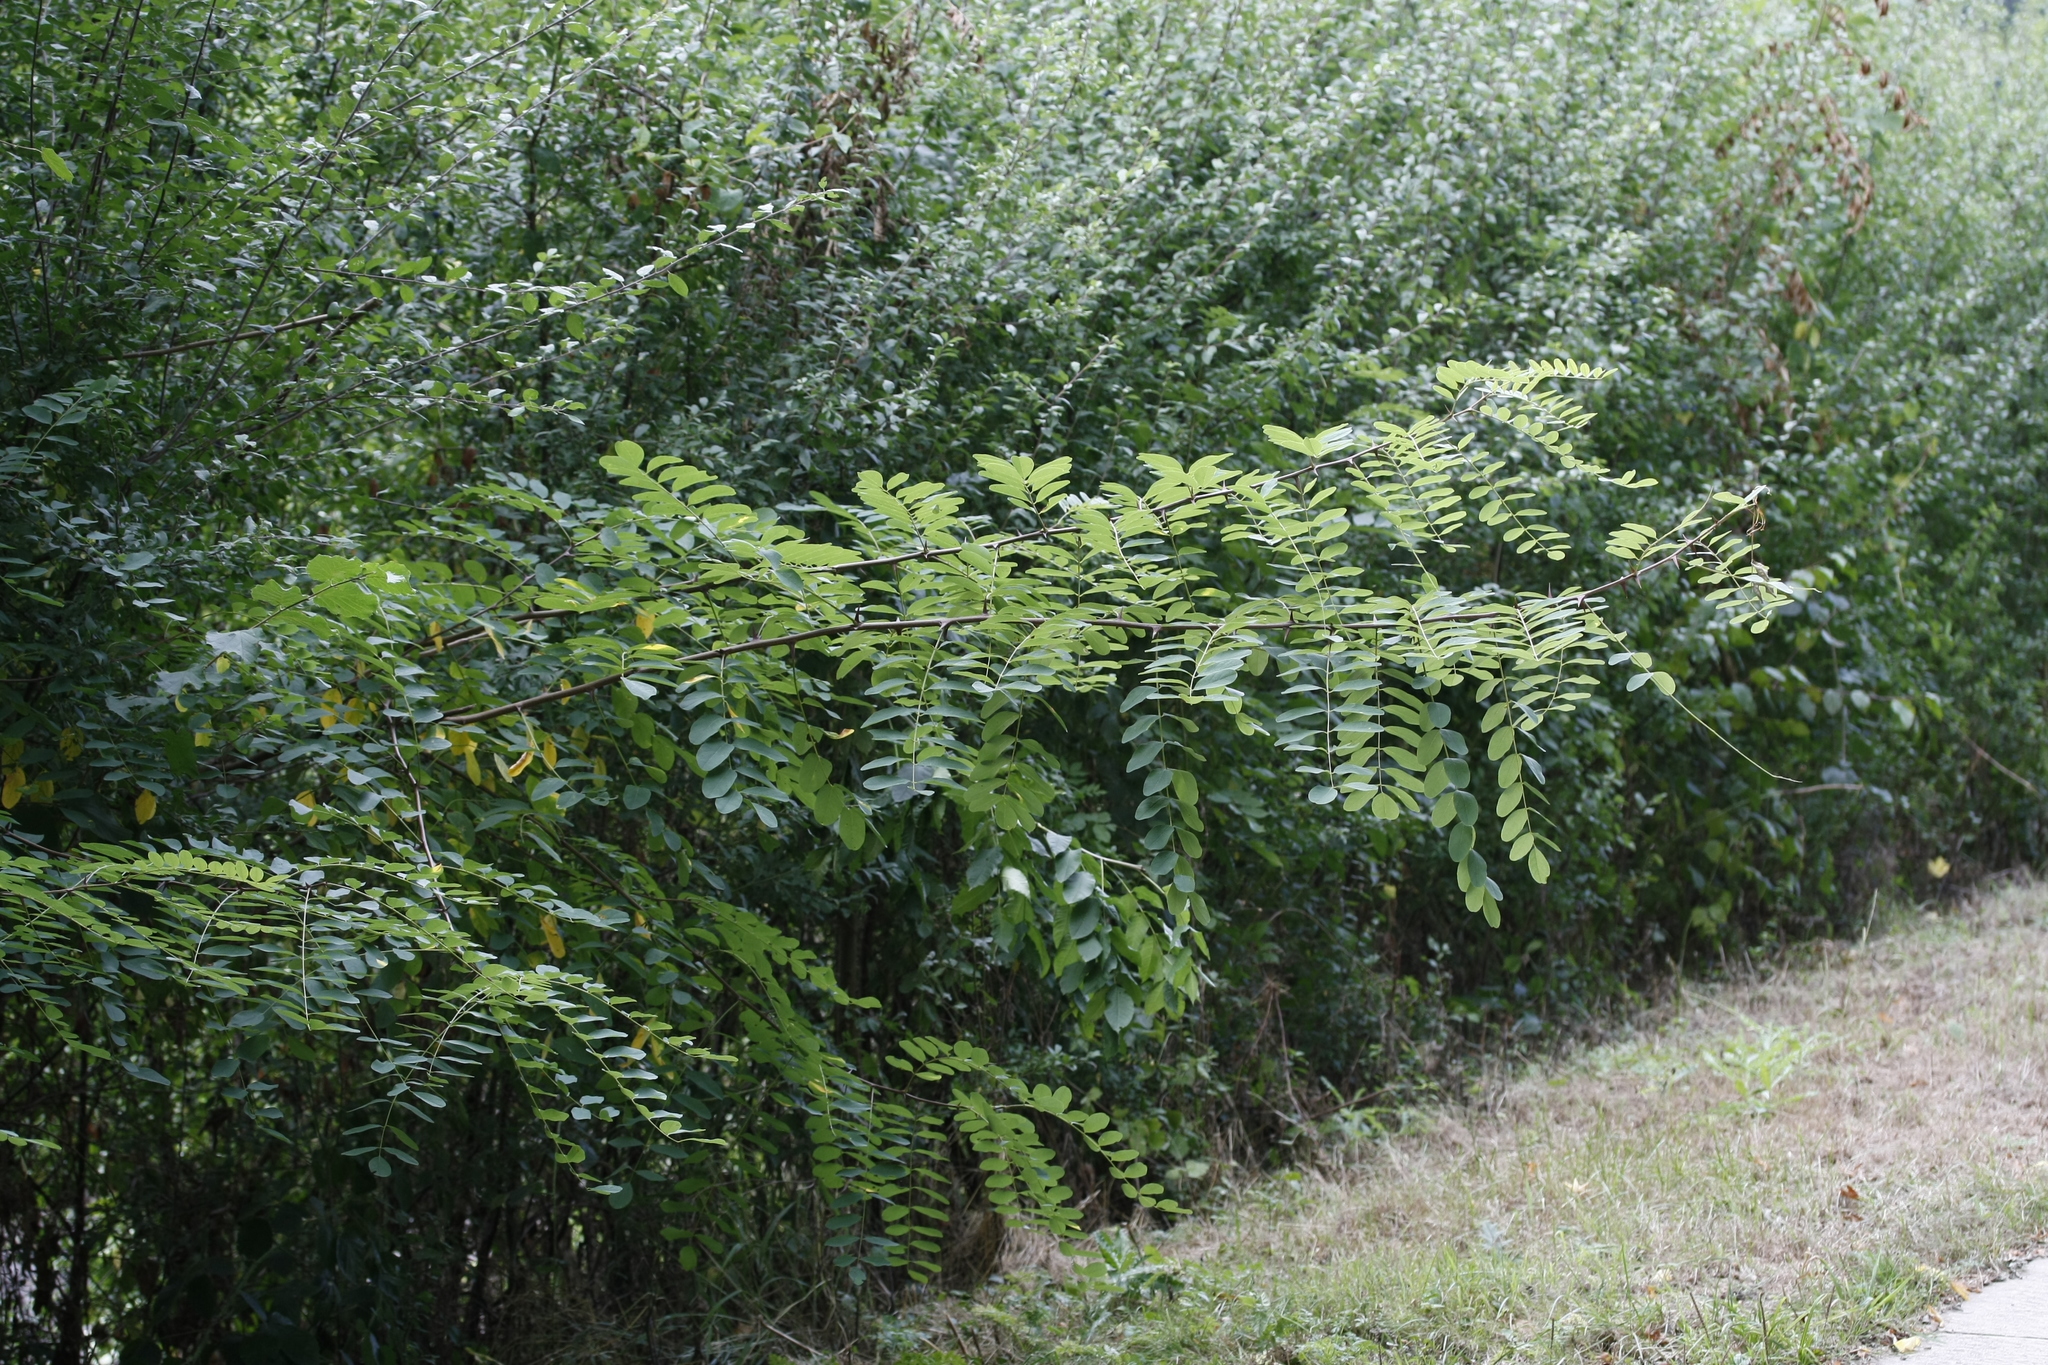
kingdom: Plantae
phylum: Tracheophyta
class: Magnoliopsida
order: Fabales
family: Fabaceae
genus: Robinia
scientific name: Robinia pseudoacacia
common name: Black locust
